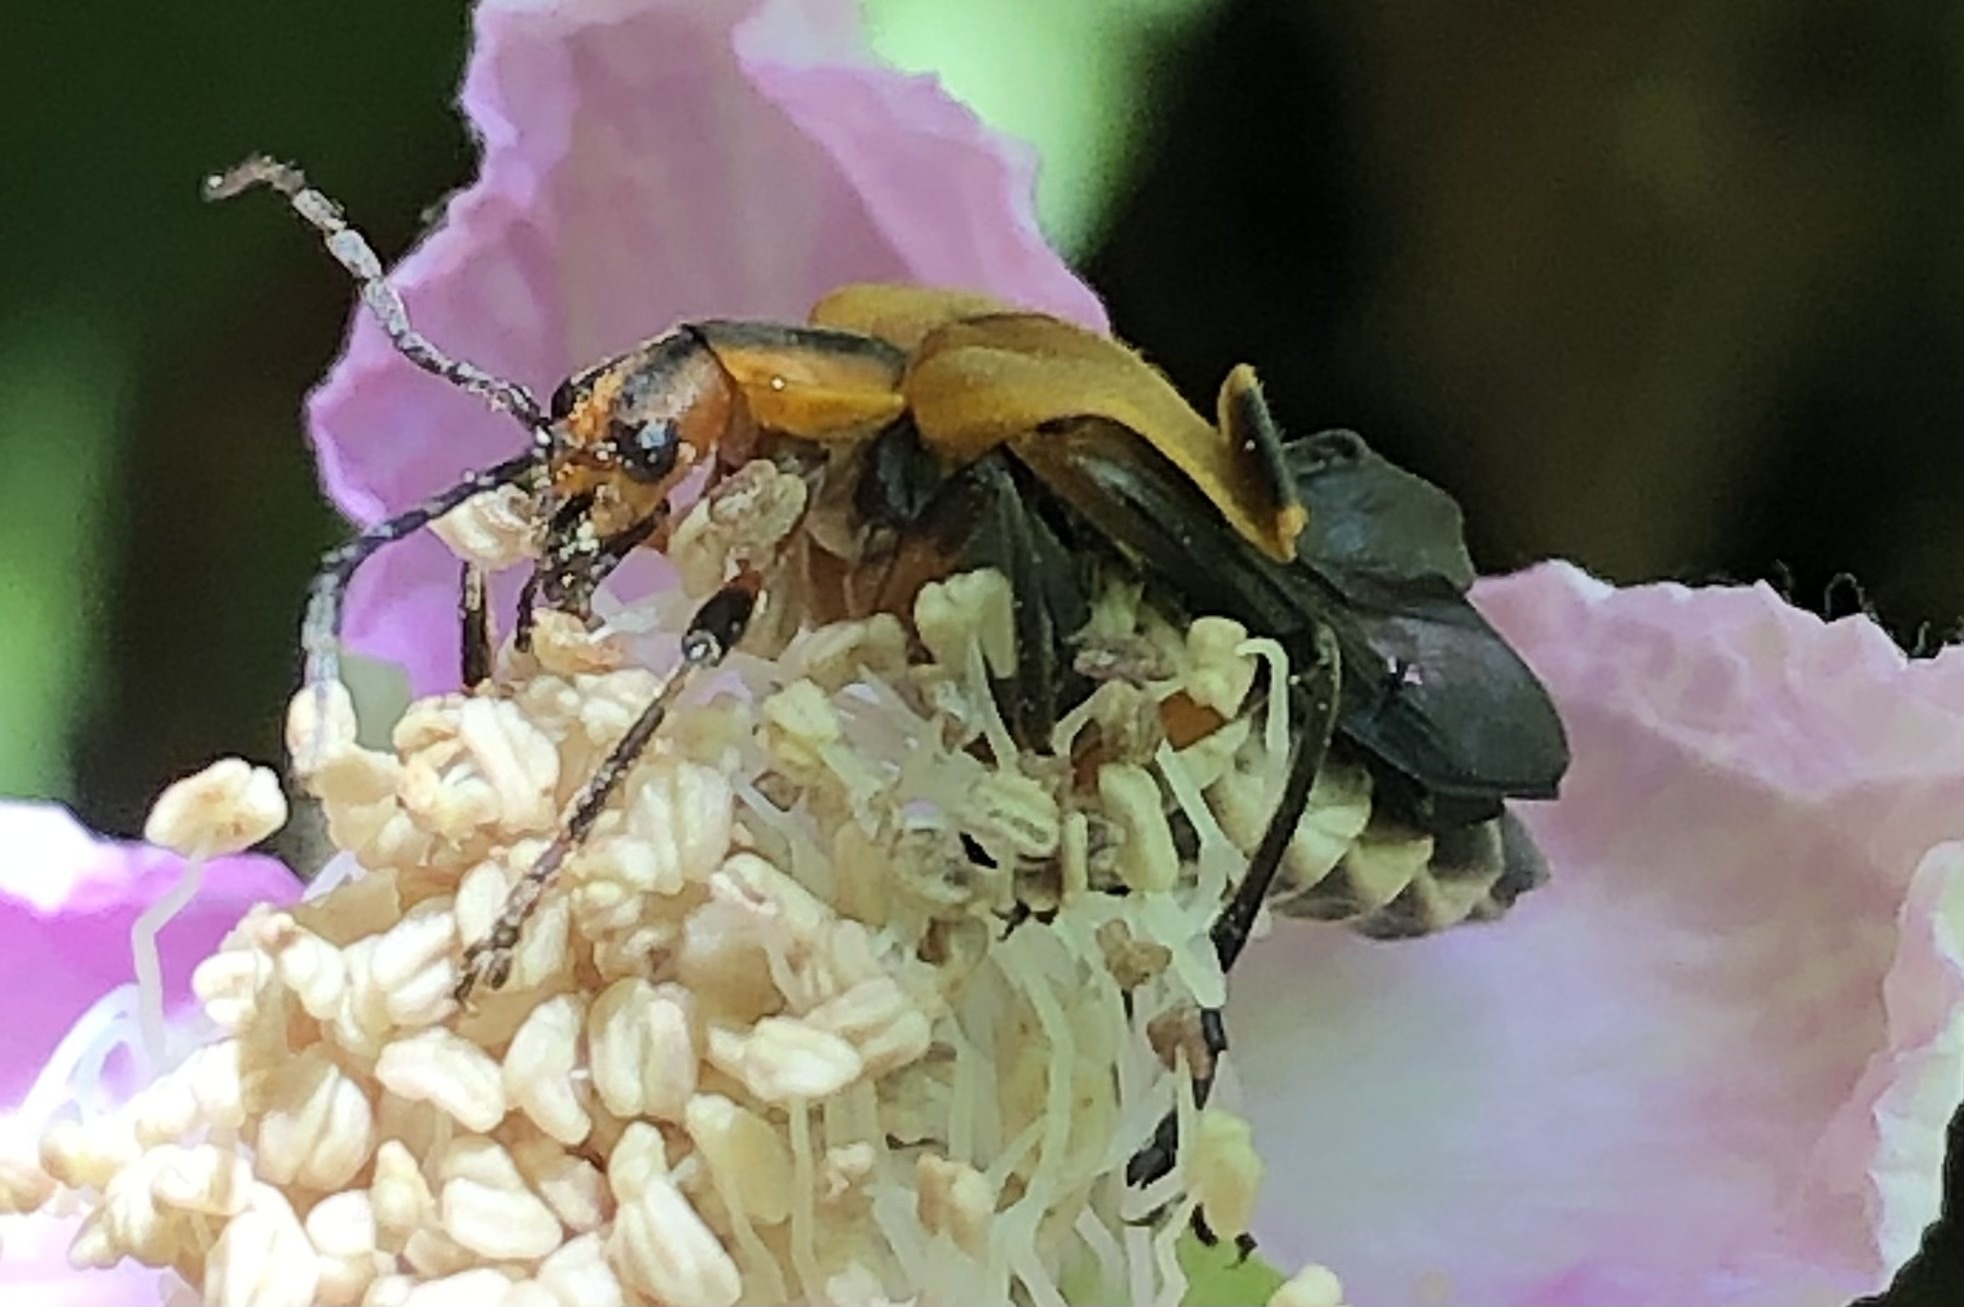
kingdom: Animalia
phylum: Arthropoda
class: Insecta
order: Coleoptera
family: Cantharidae
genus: Chauliognathus
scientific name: Chauliognathus marginatus
